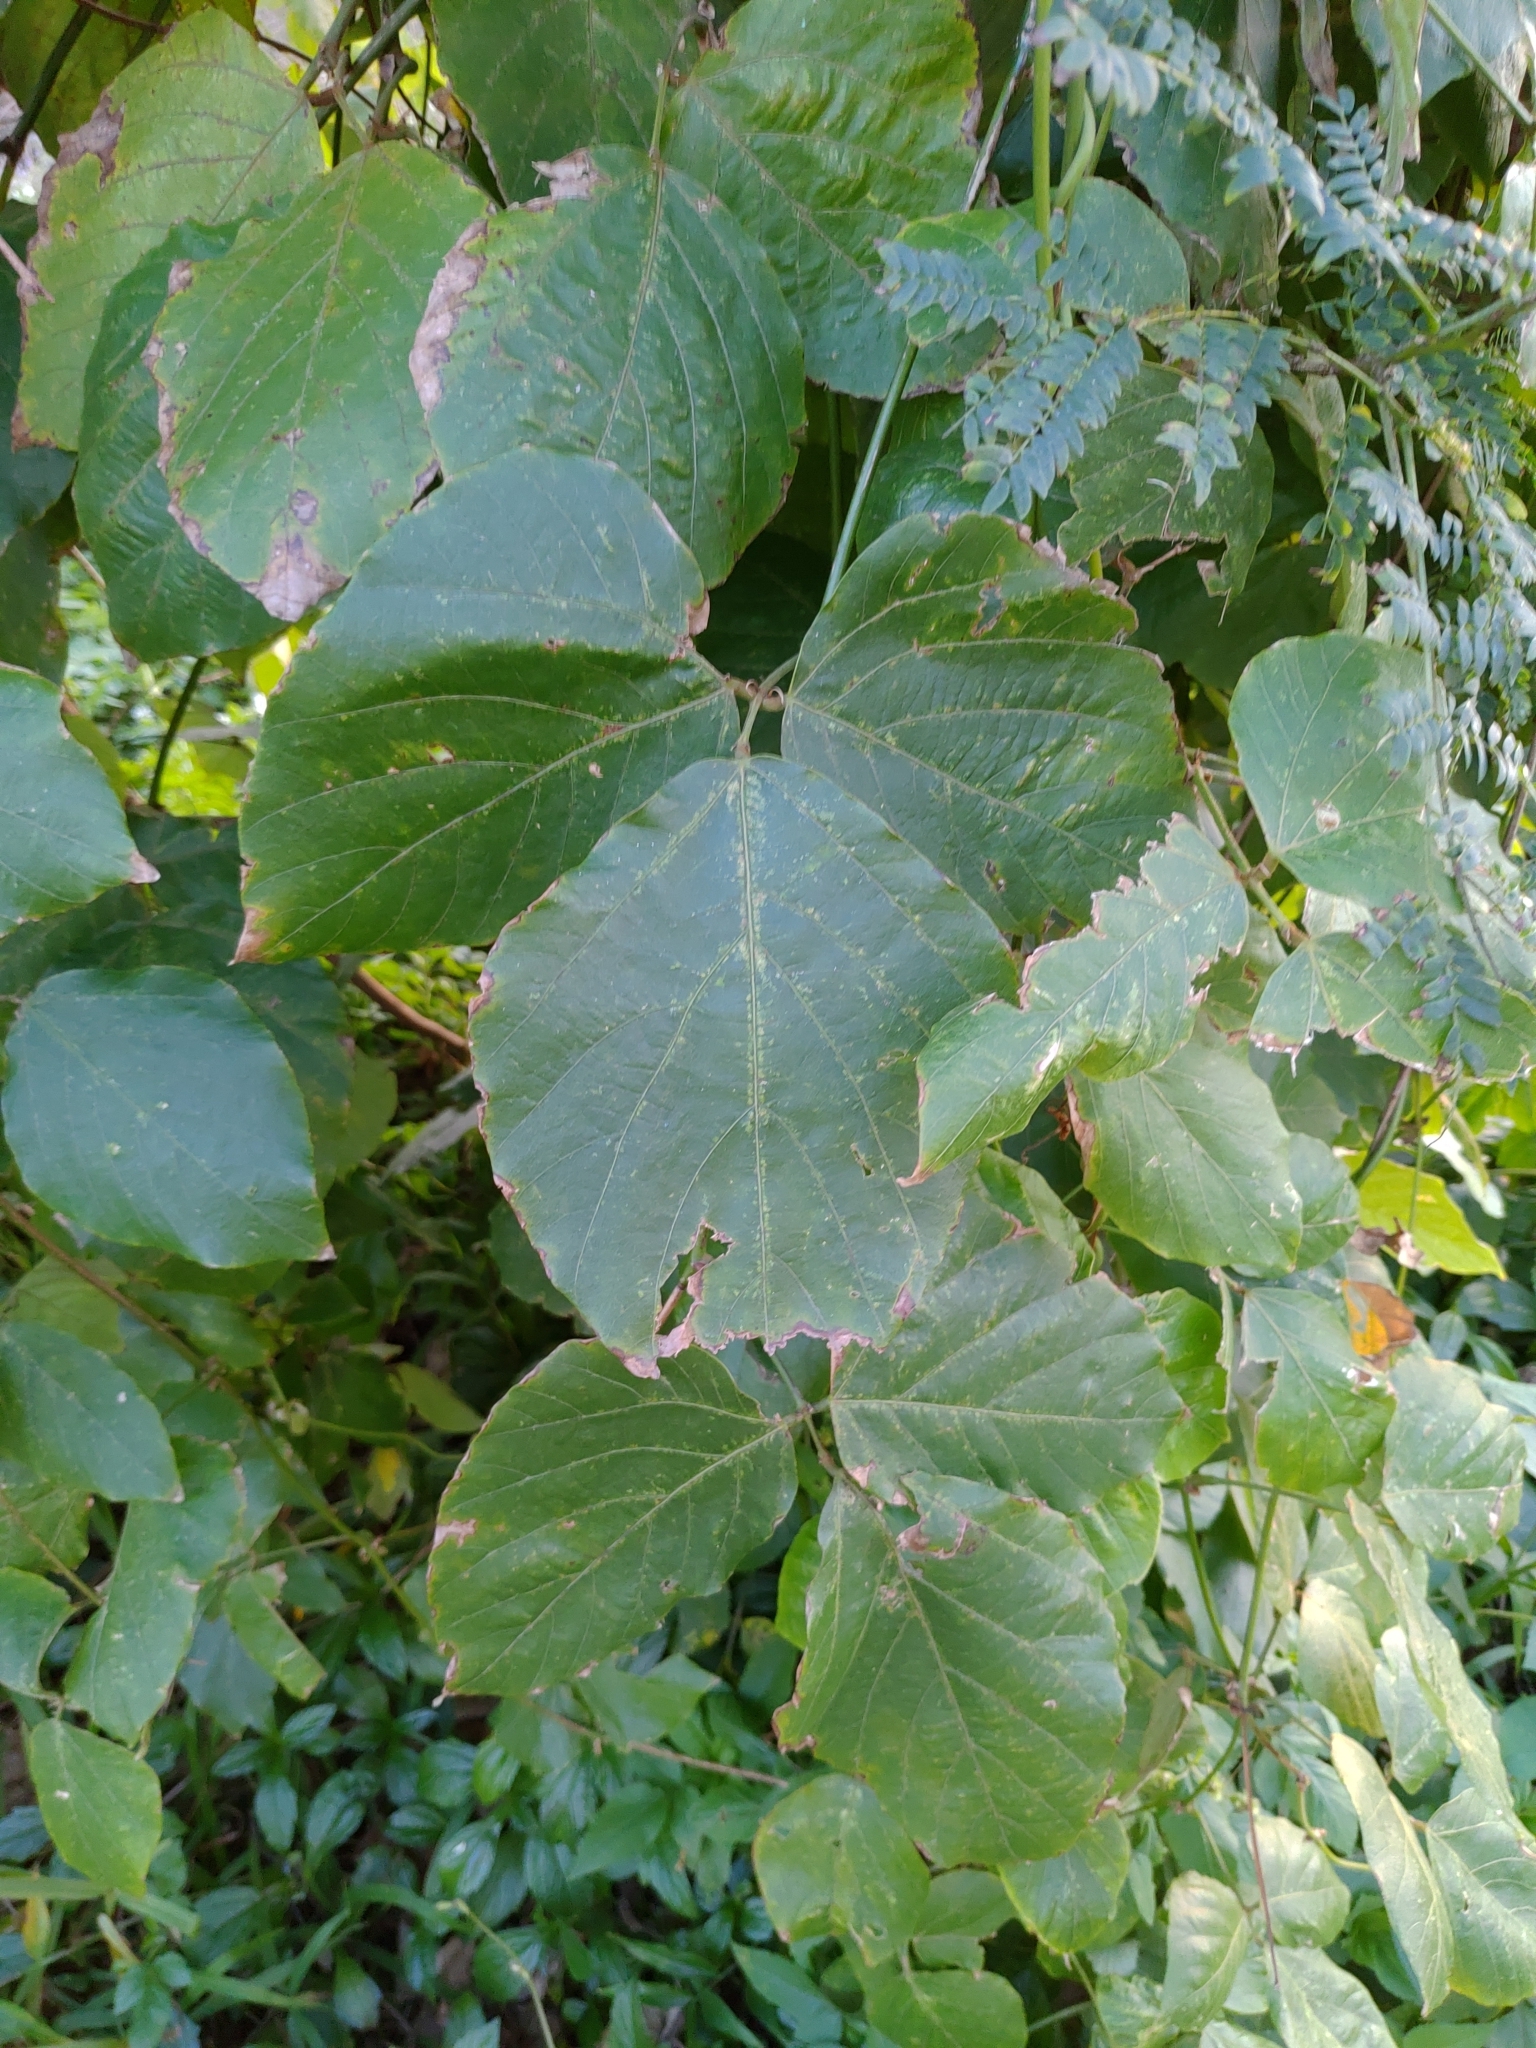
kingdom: Plantae
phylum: Tracheophyta
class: Magnoliopsida
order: Fabales
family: Fabaceae
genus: Pueraria
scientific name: Pueraria montana
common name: Kudzu
